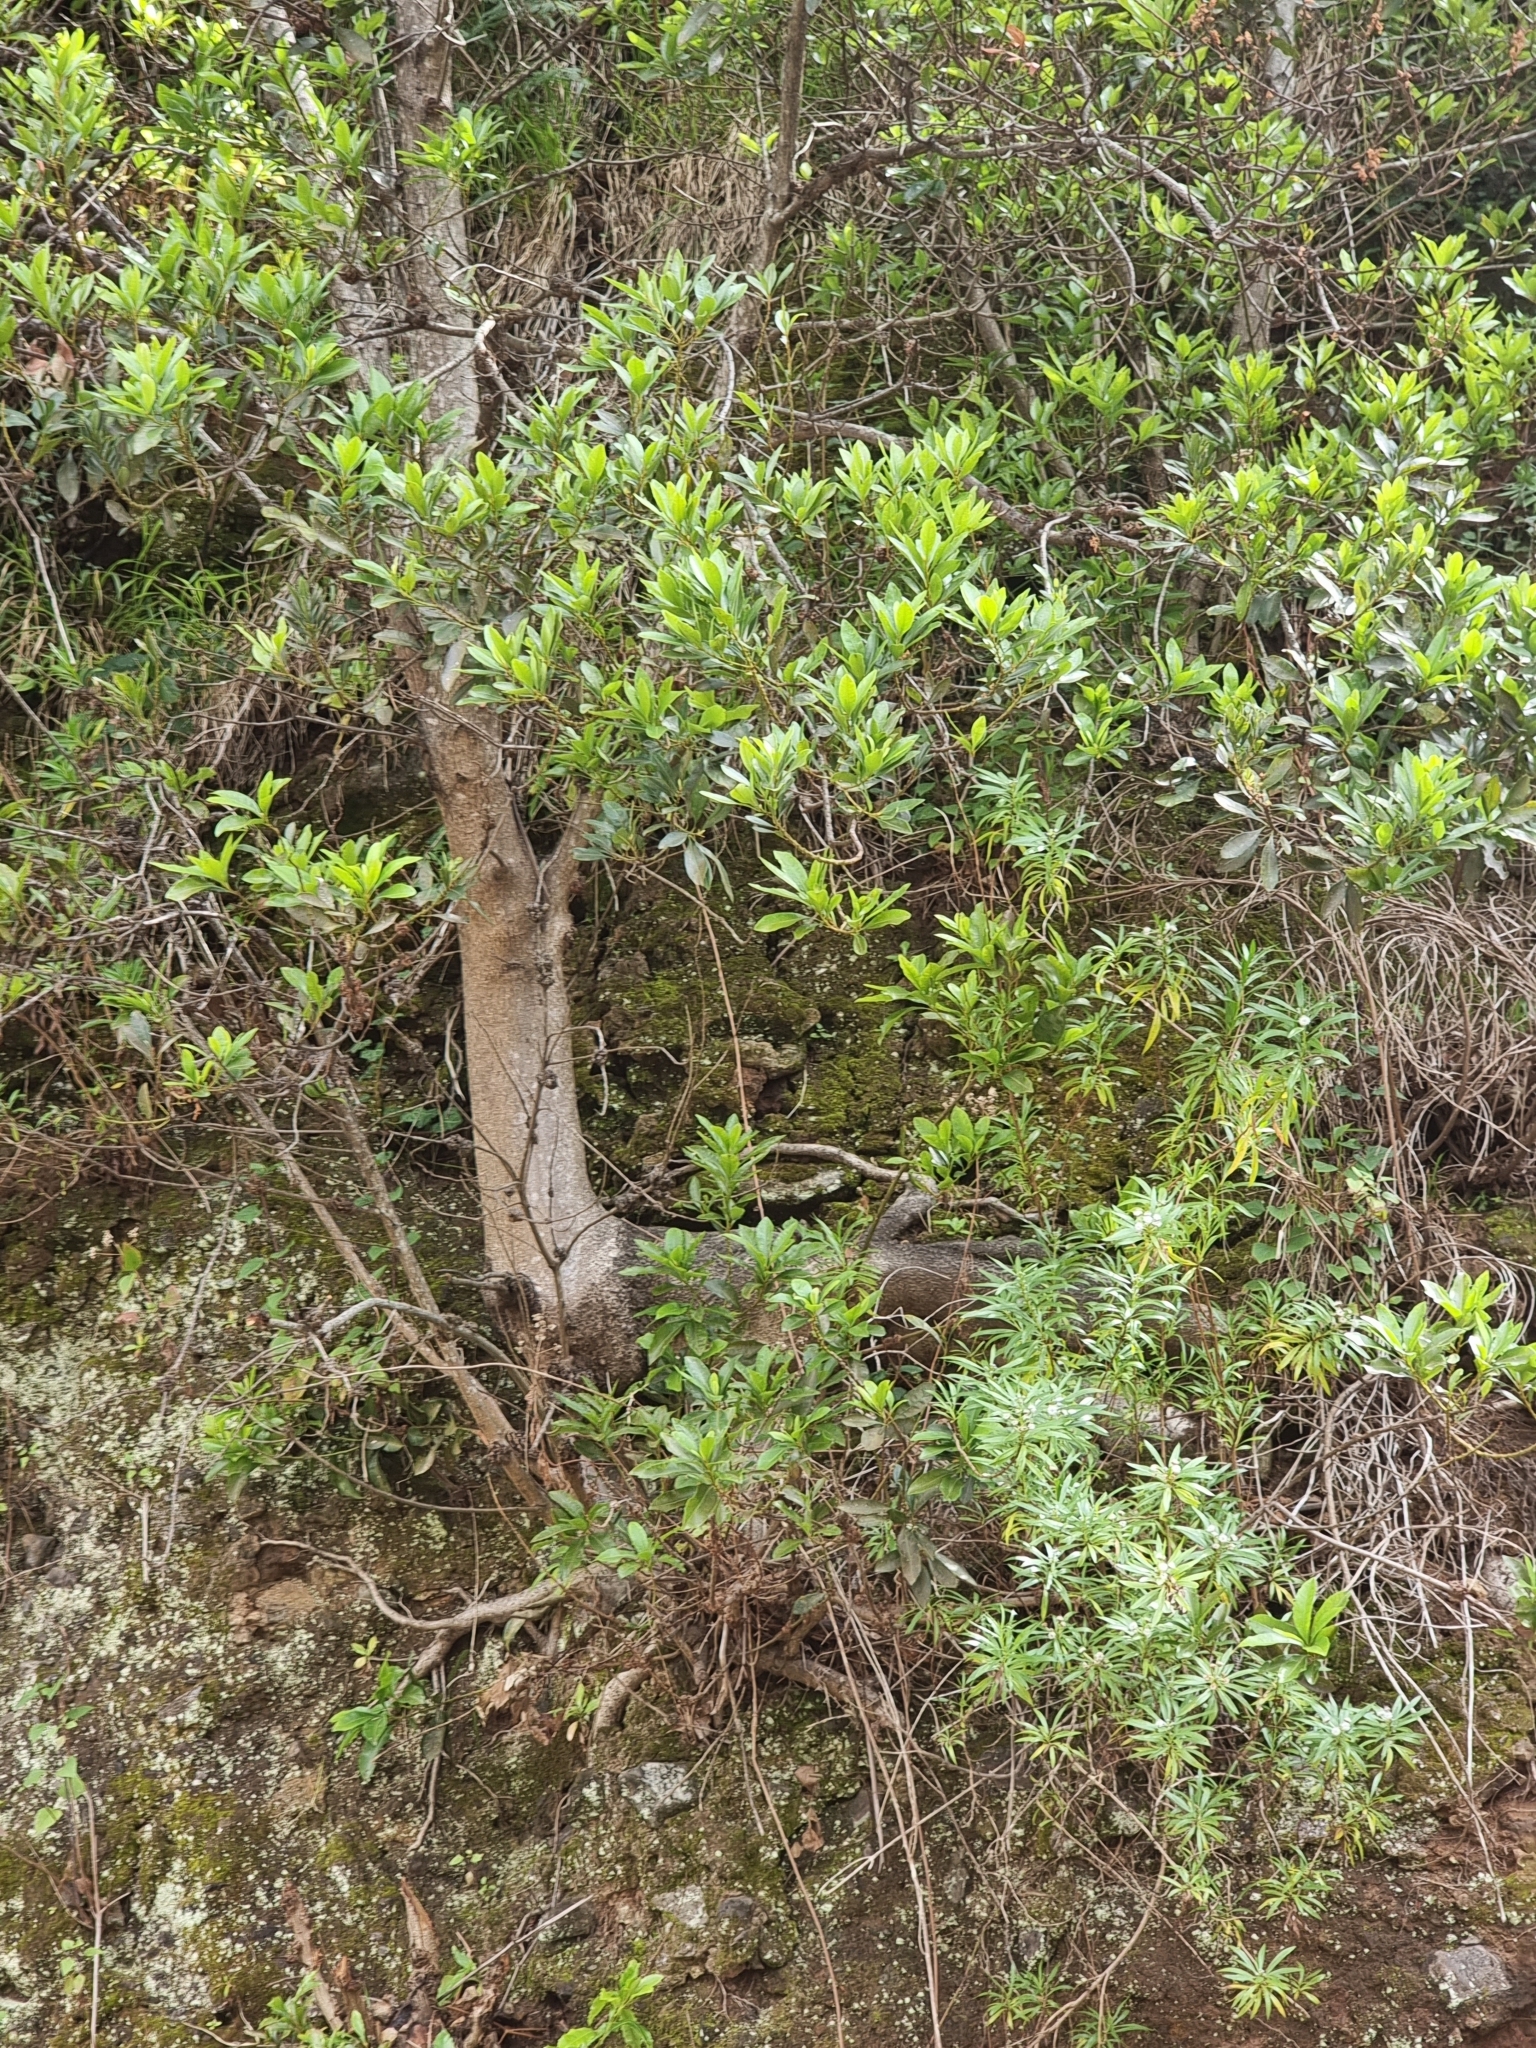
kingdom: Plantae
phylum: Tracheophyta
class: Magnoliopsida
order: Fagales
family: Myricaceae
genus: Morella
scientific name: Morella faya
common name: Firetree
